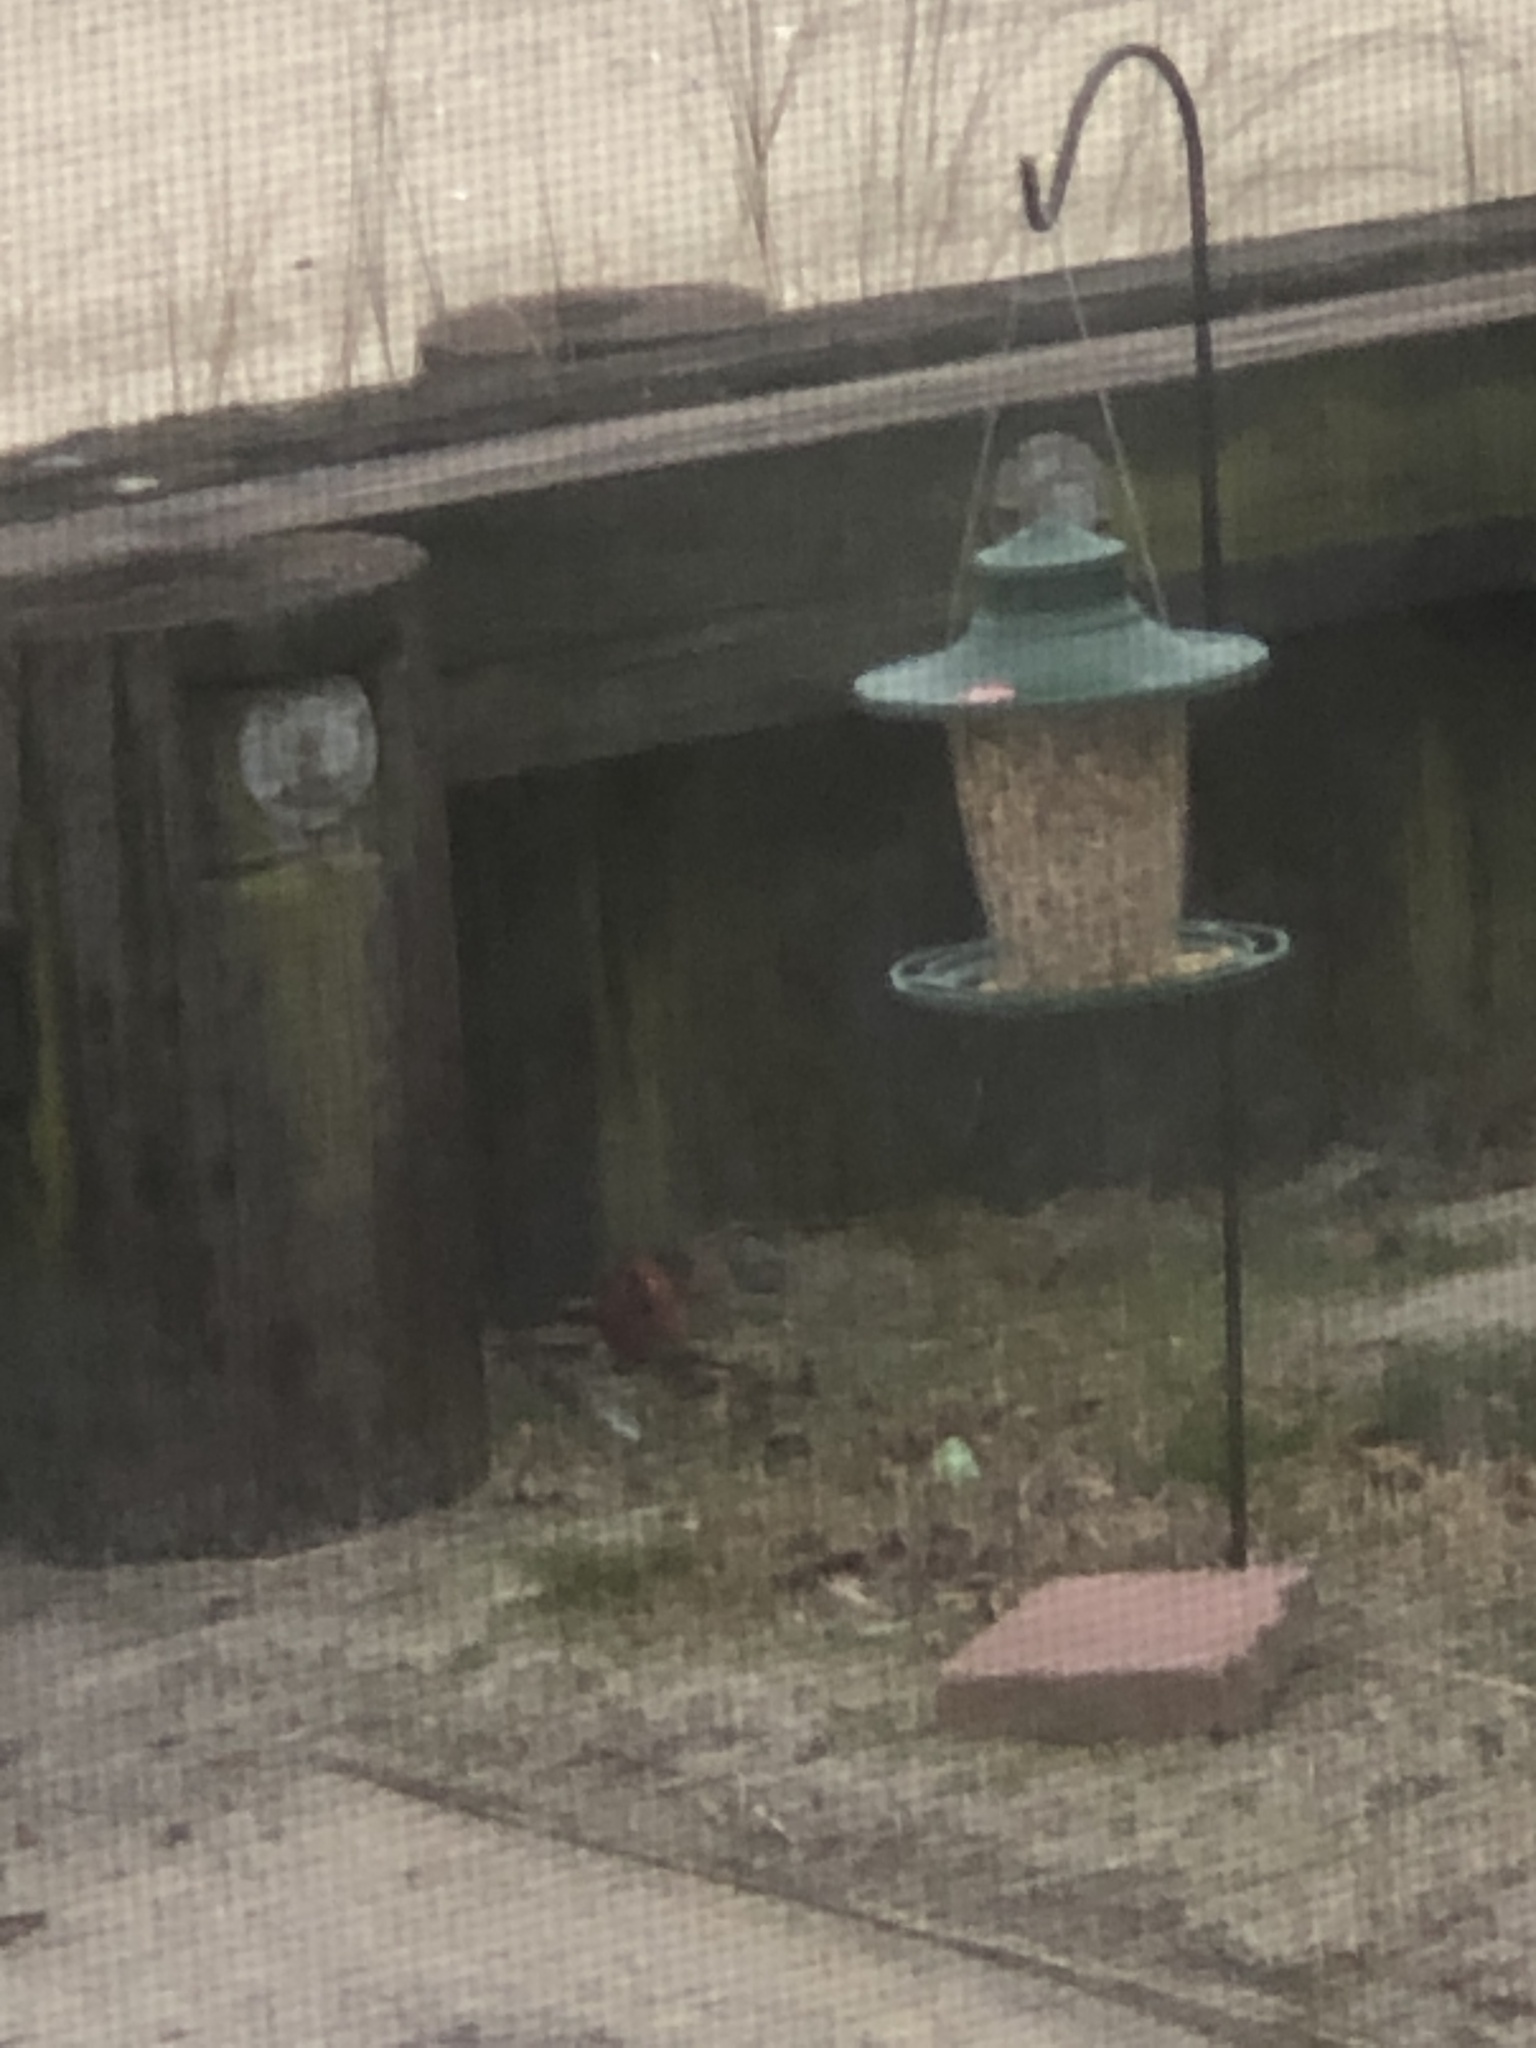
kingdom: Animalia
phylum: Chordata
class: Aves
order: Passeriformes
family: Cardinalidae
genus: Cardinalis
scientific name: Cardinalis cardinalis
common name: Northern cardinal
